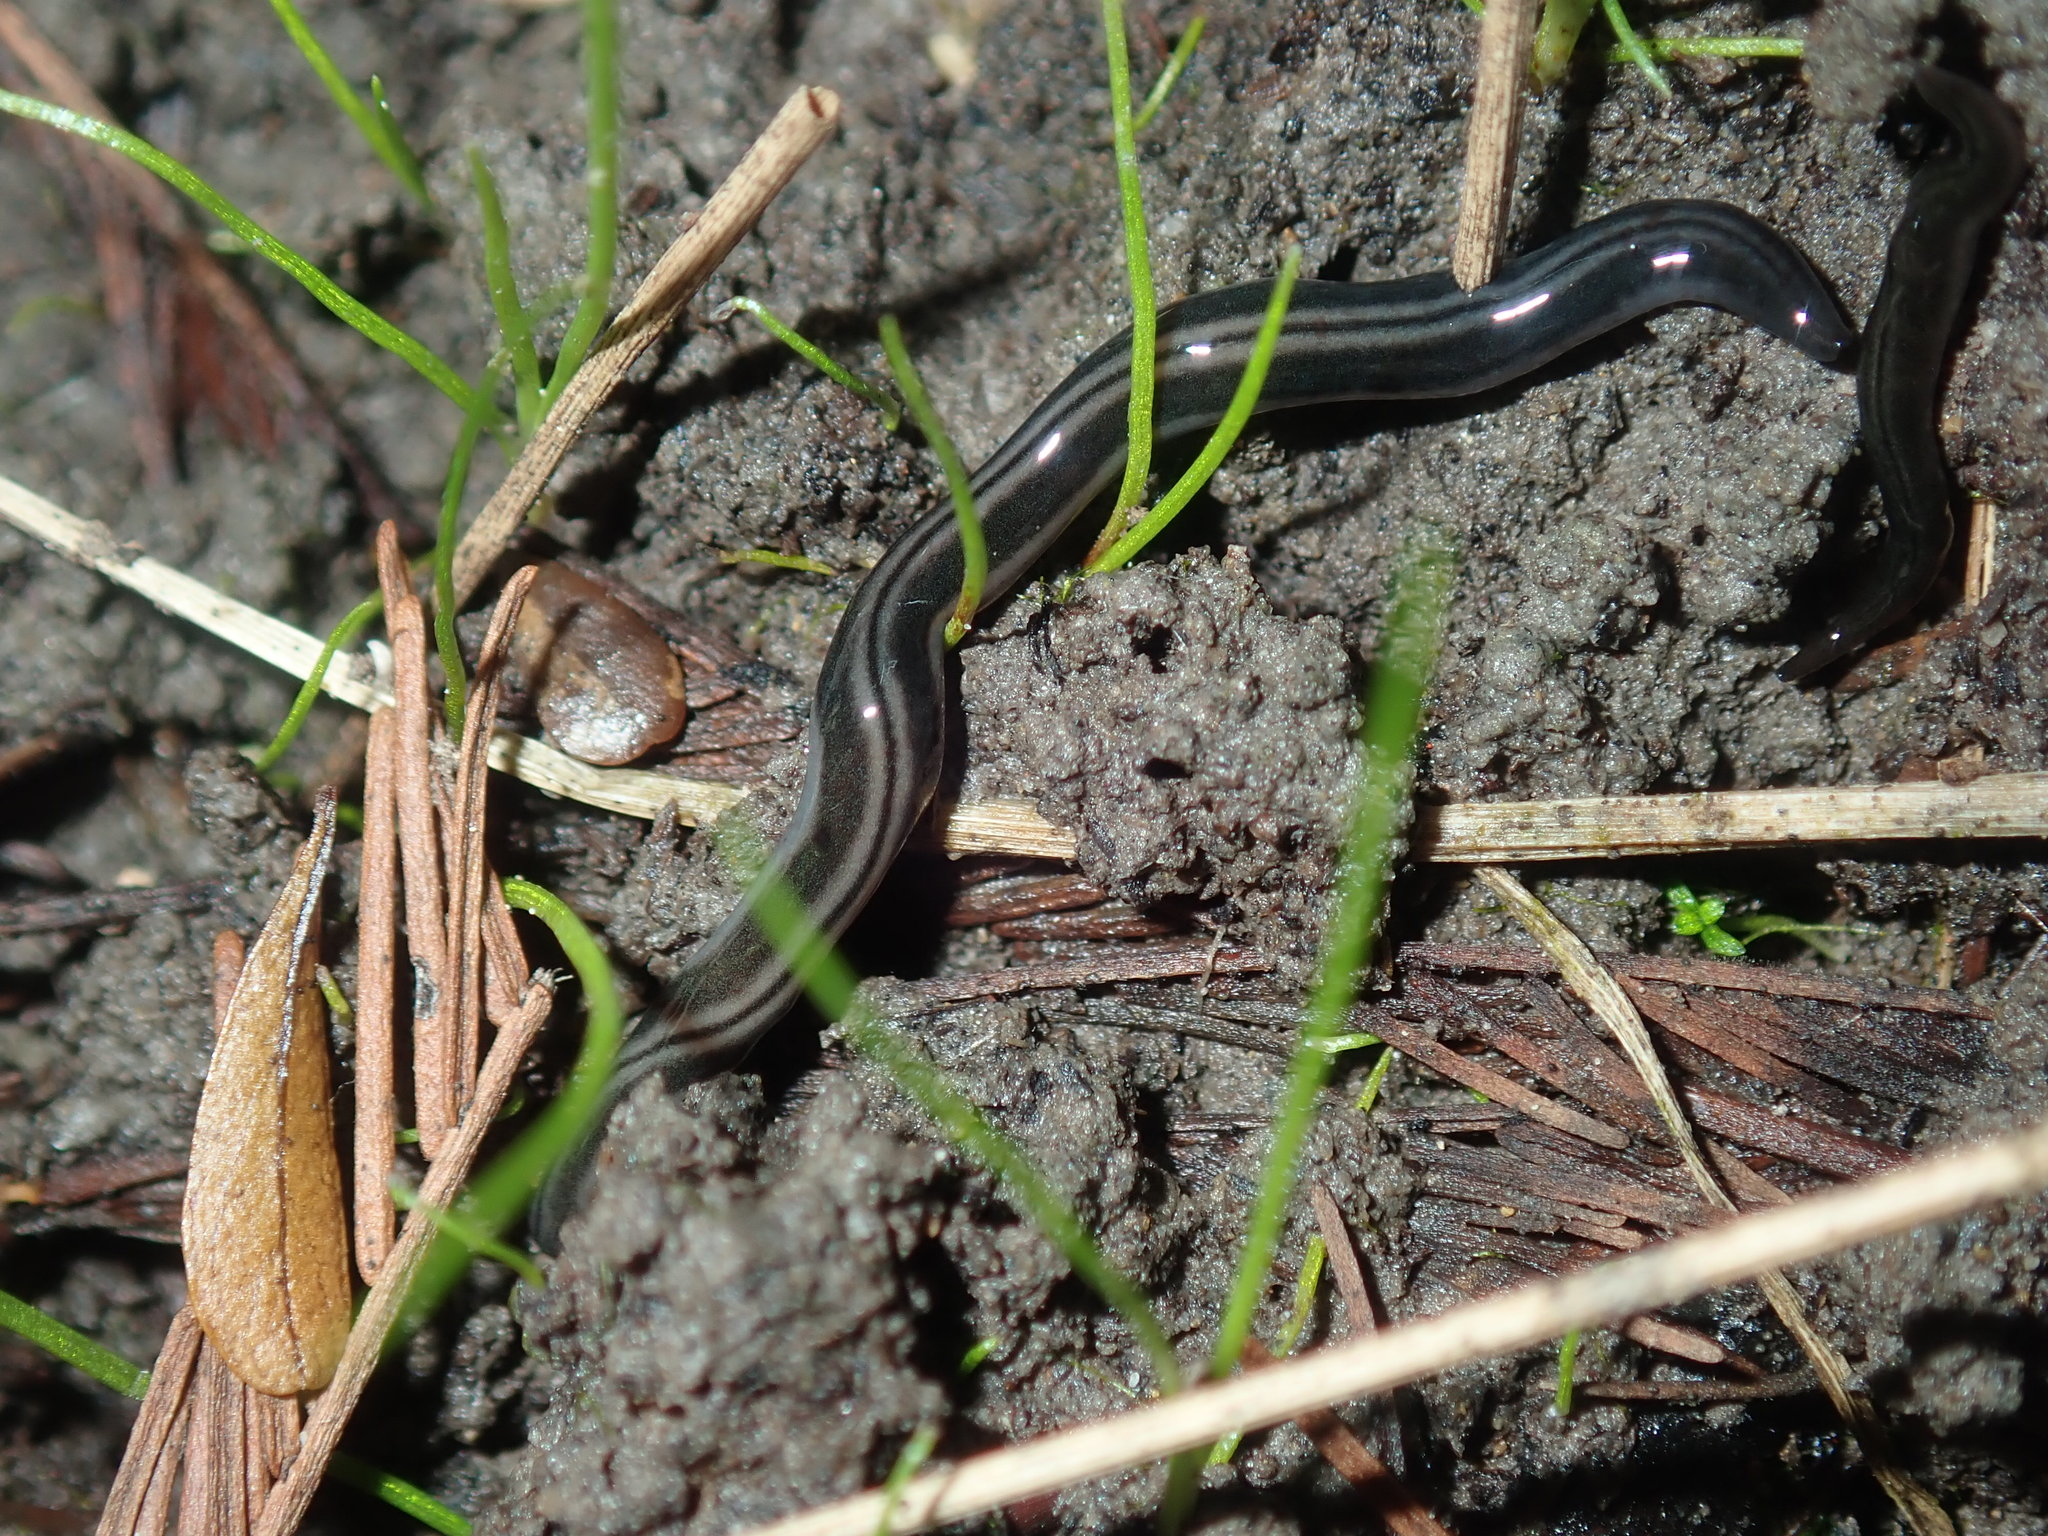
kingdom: Animalia
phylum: Platyhelminthes
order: Tricladida
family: Geoplanidae
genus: Parakontikia
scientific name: Parakontikia ventrolineata
